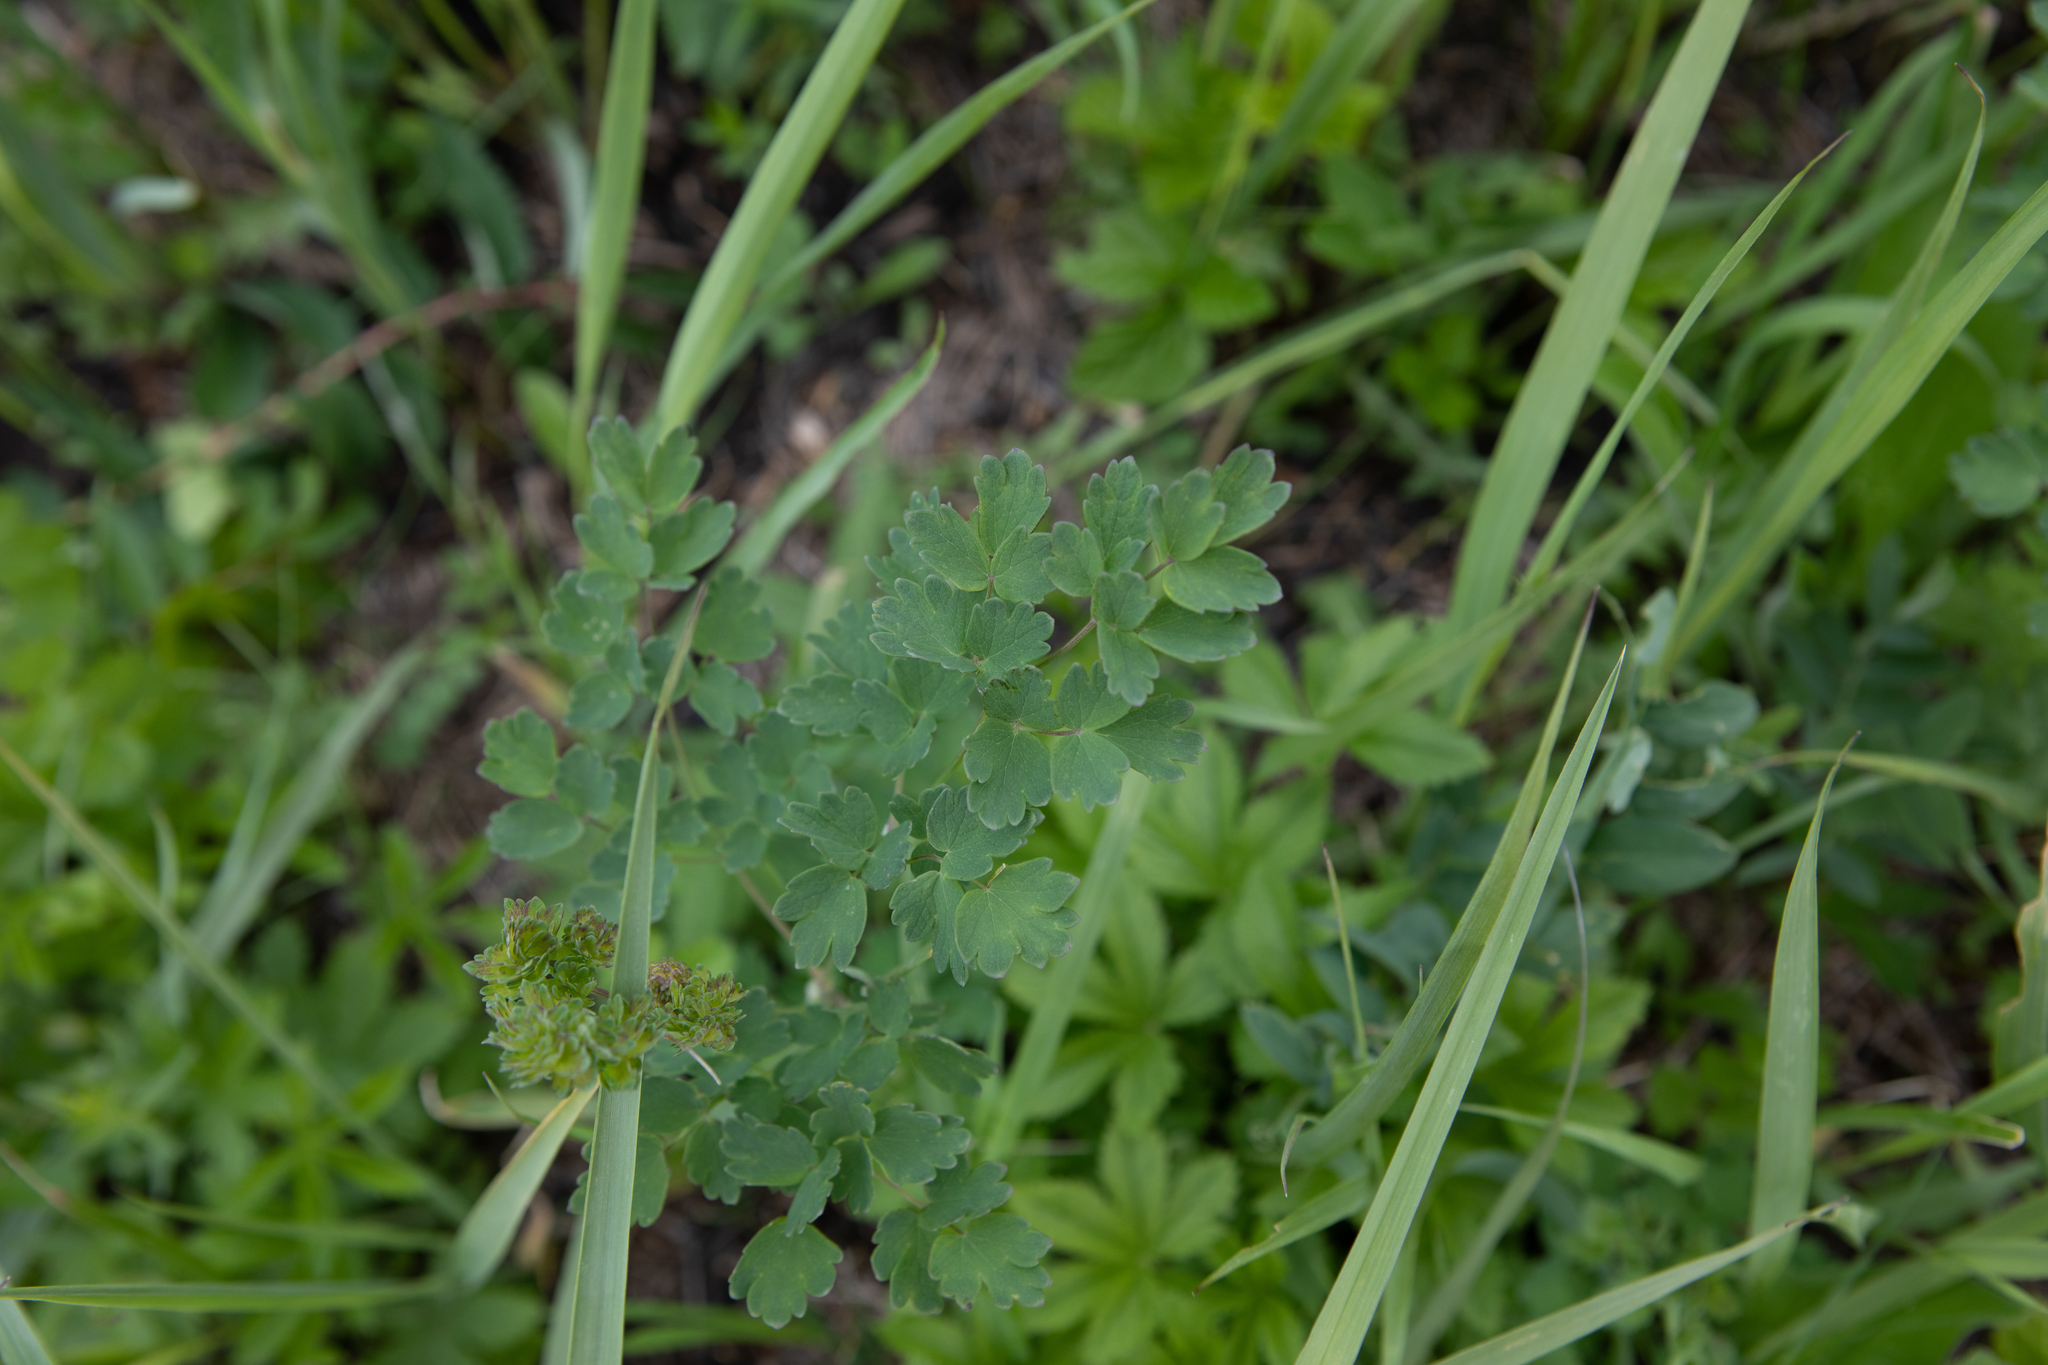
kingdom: Plantae
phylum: Tracheophyta
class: Magnoliopsida
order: Ranunculales
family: Ranunculaceae
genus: Thalictrum
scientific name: Thalictrum minus
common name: Lesser meadow-rue
